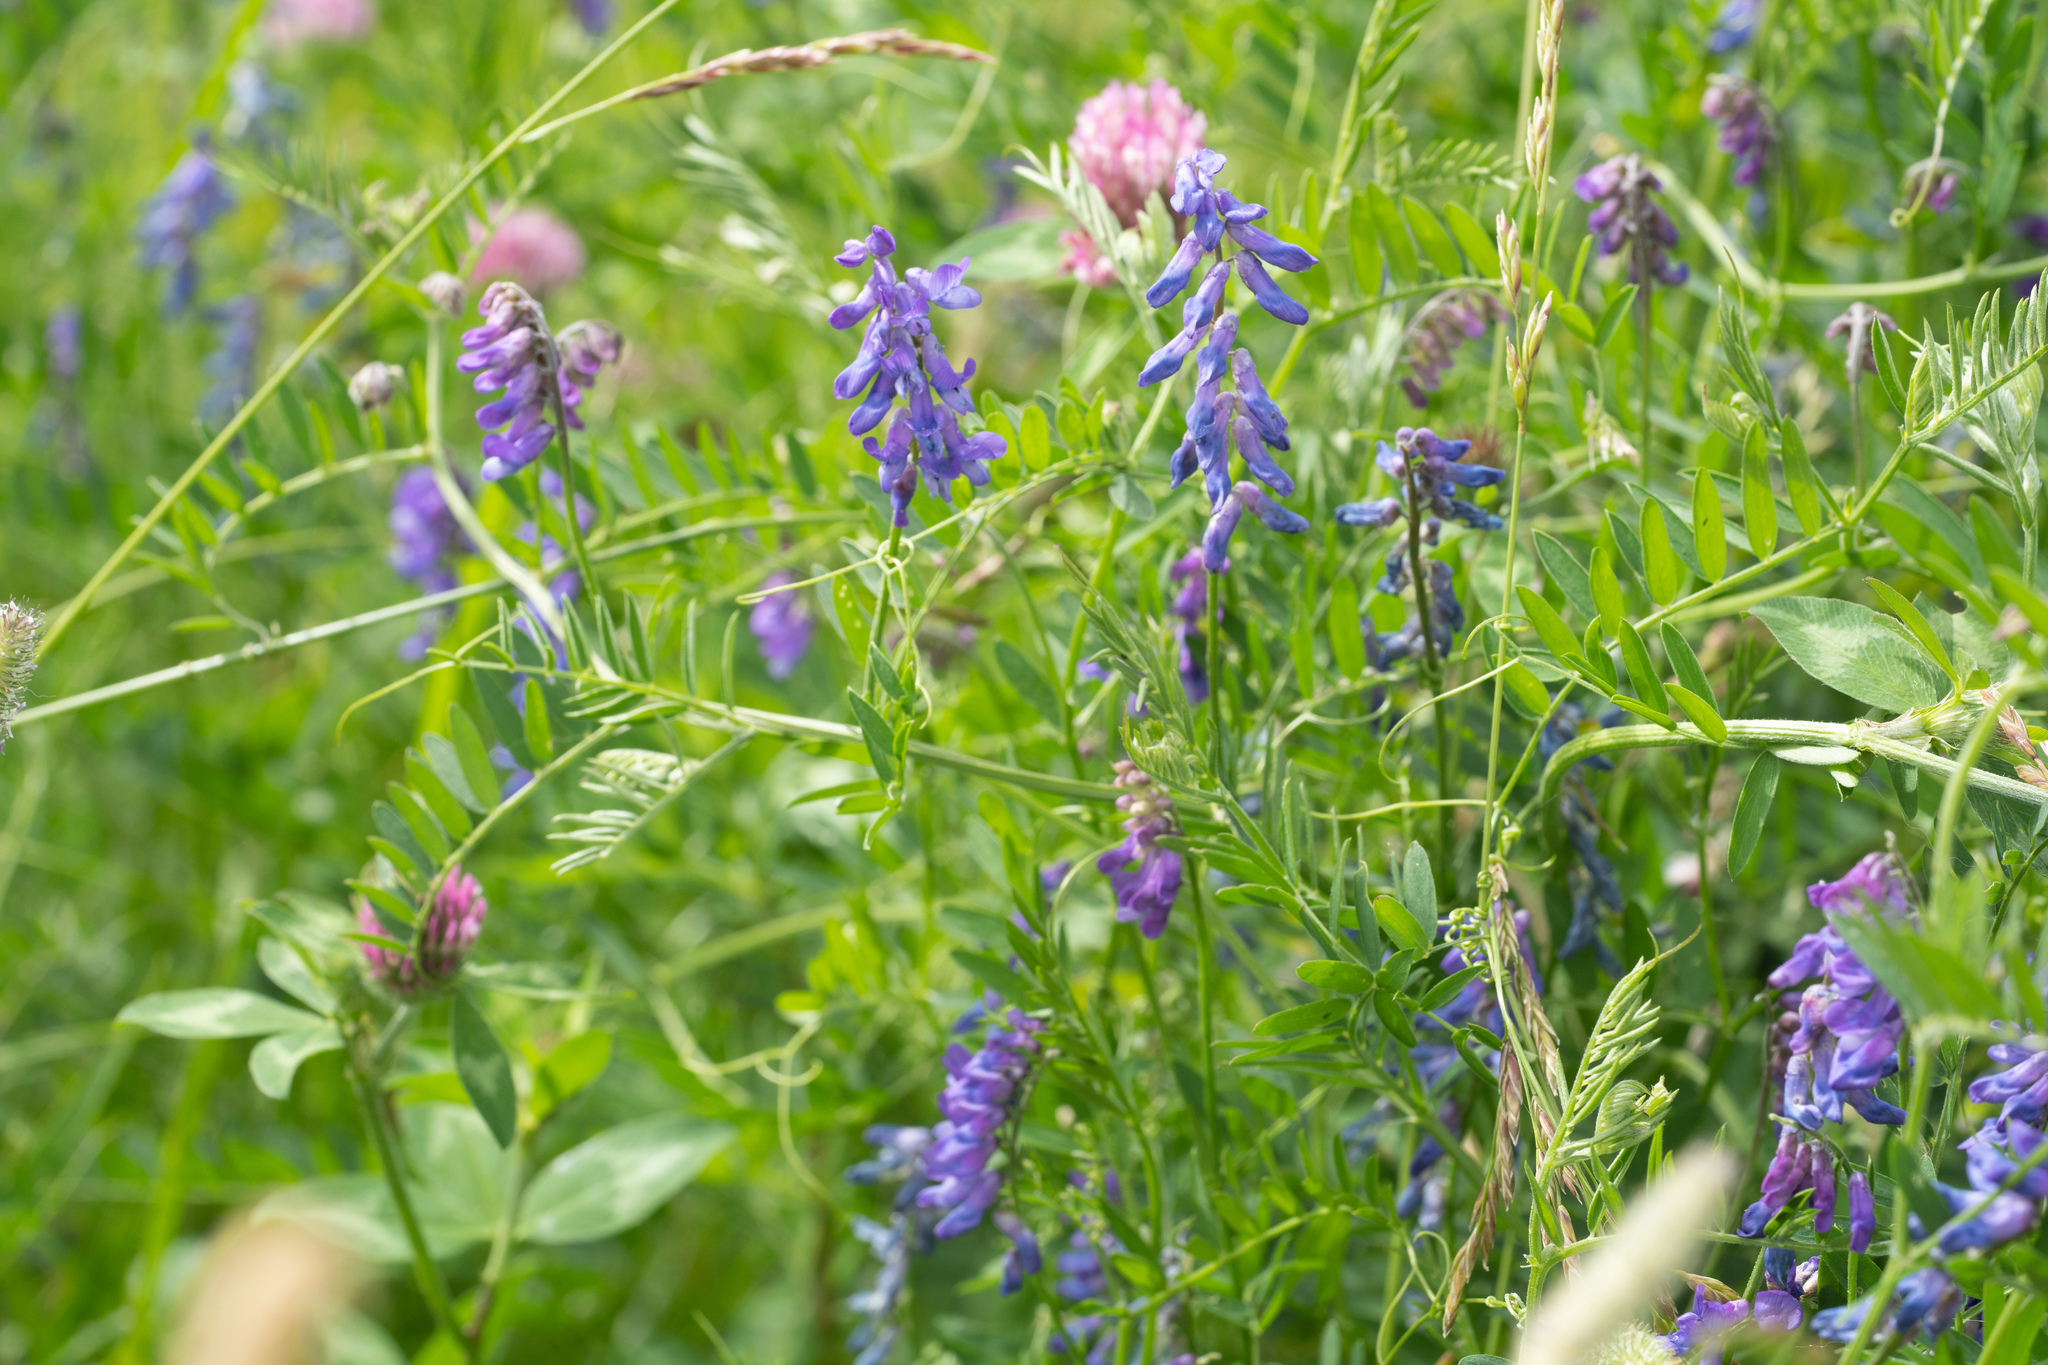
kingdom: Plantae
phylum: Tracheophyta
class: Magnoliopsida
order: Fabales
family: Fabaceae
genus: Vicia
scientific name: Vicia cracca
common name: Bird vetch
